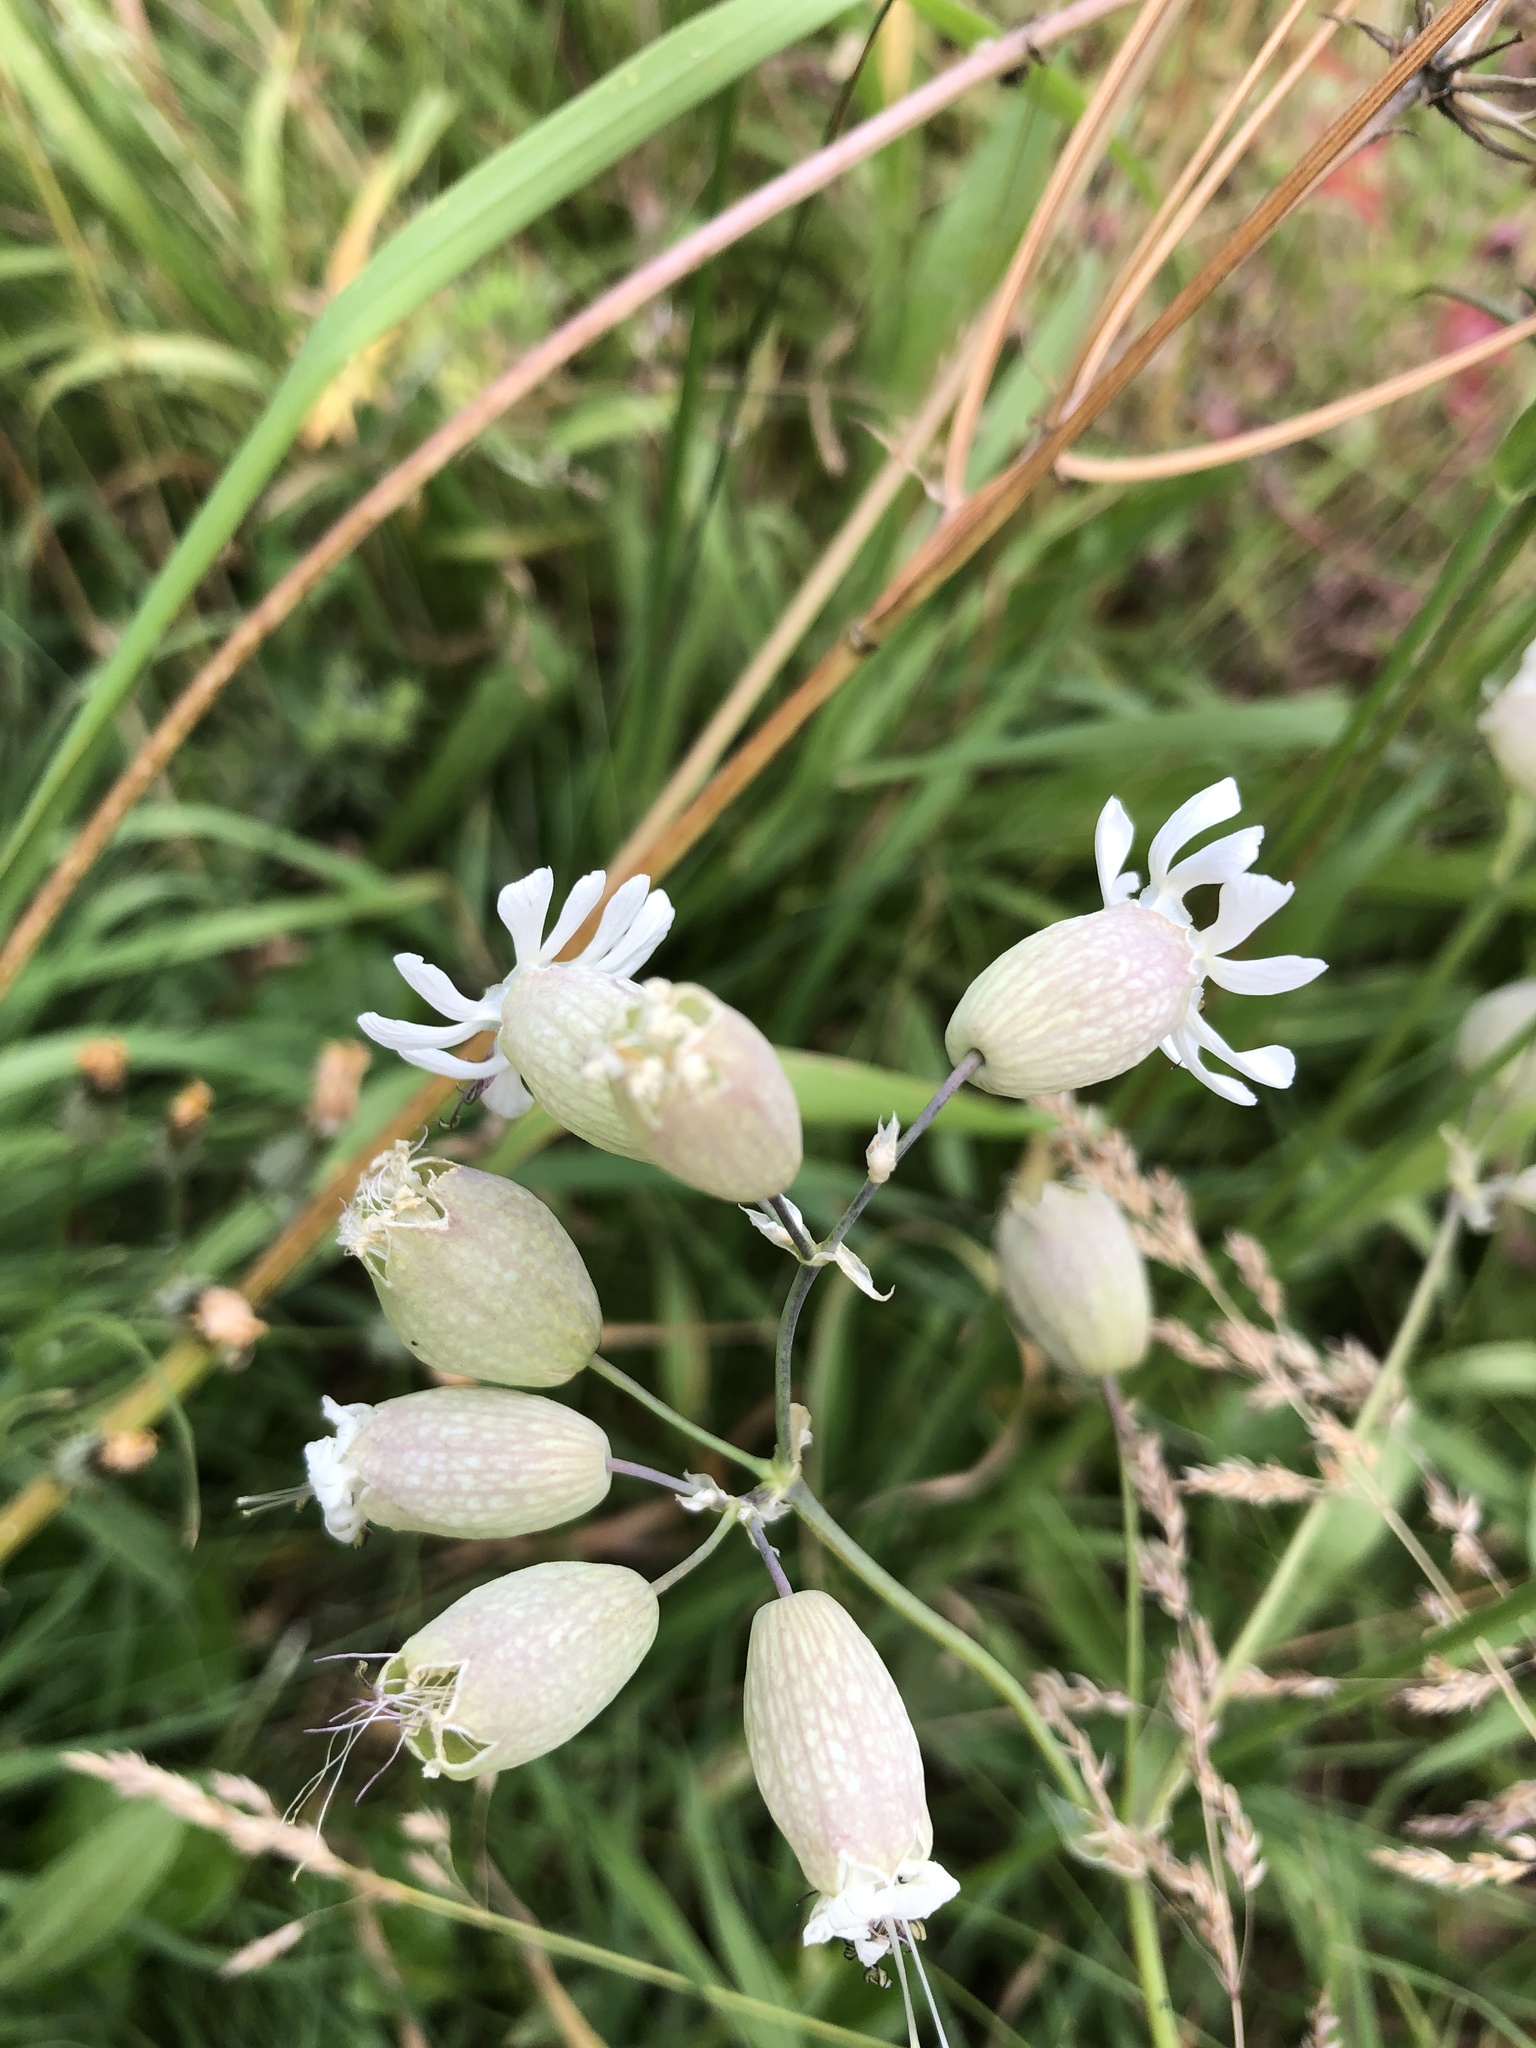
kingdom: Plantae
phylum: Tracheophyta
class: Magnoliopsida
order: Caryophyllales
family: Caryophyllaceae
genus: Silene
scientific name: Silene vulgaris
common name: Bladder campion
